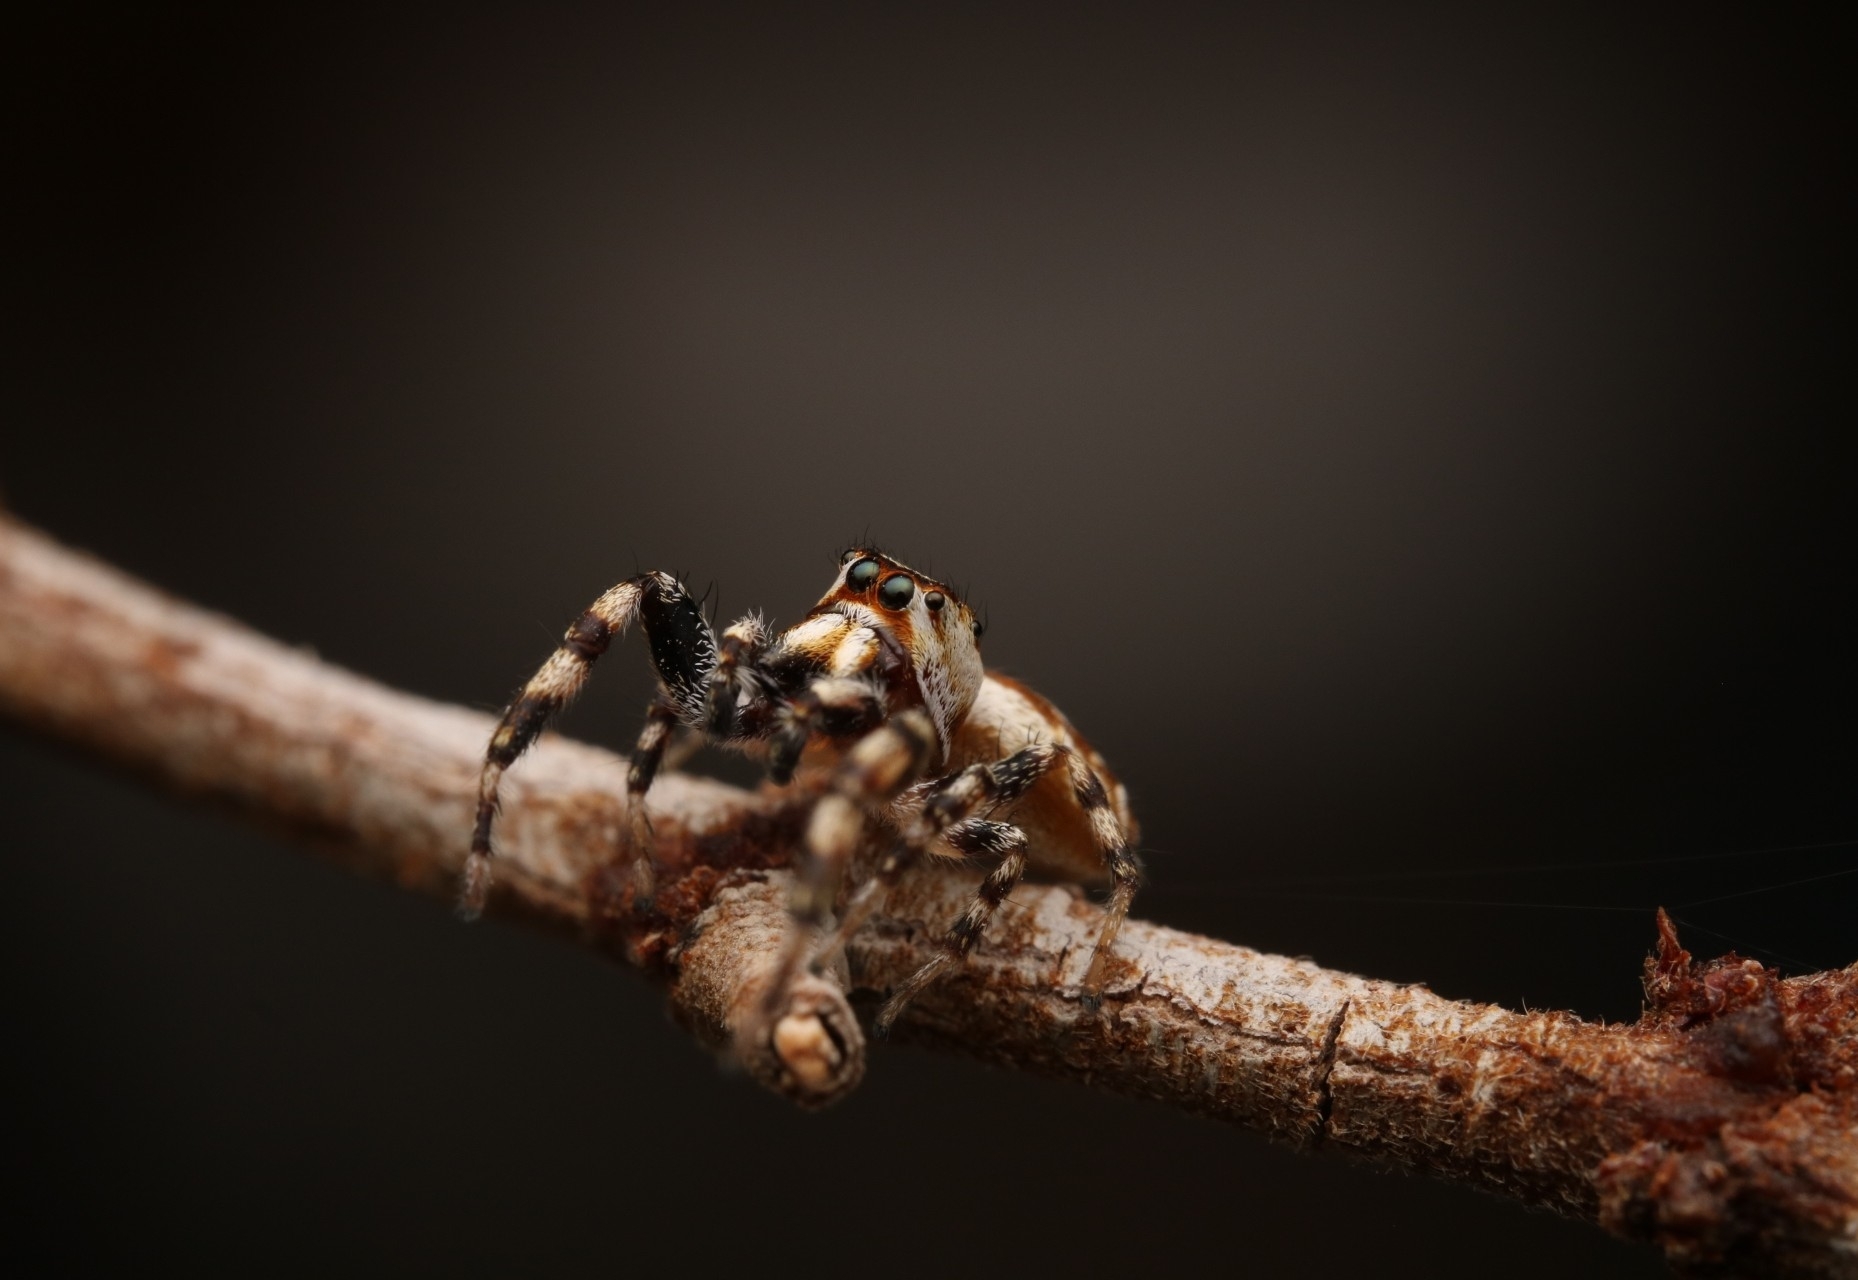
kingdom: Animalia
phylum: Arthropoda
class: Arachnida
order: Araneae
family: Salticidae
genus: Metaphidippus
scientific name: Metaphidippus chera
